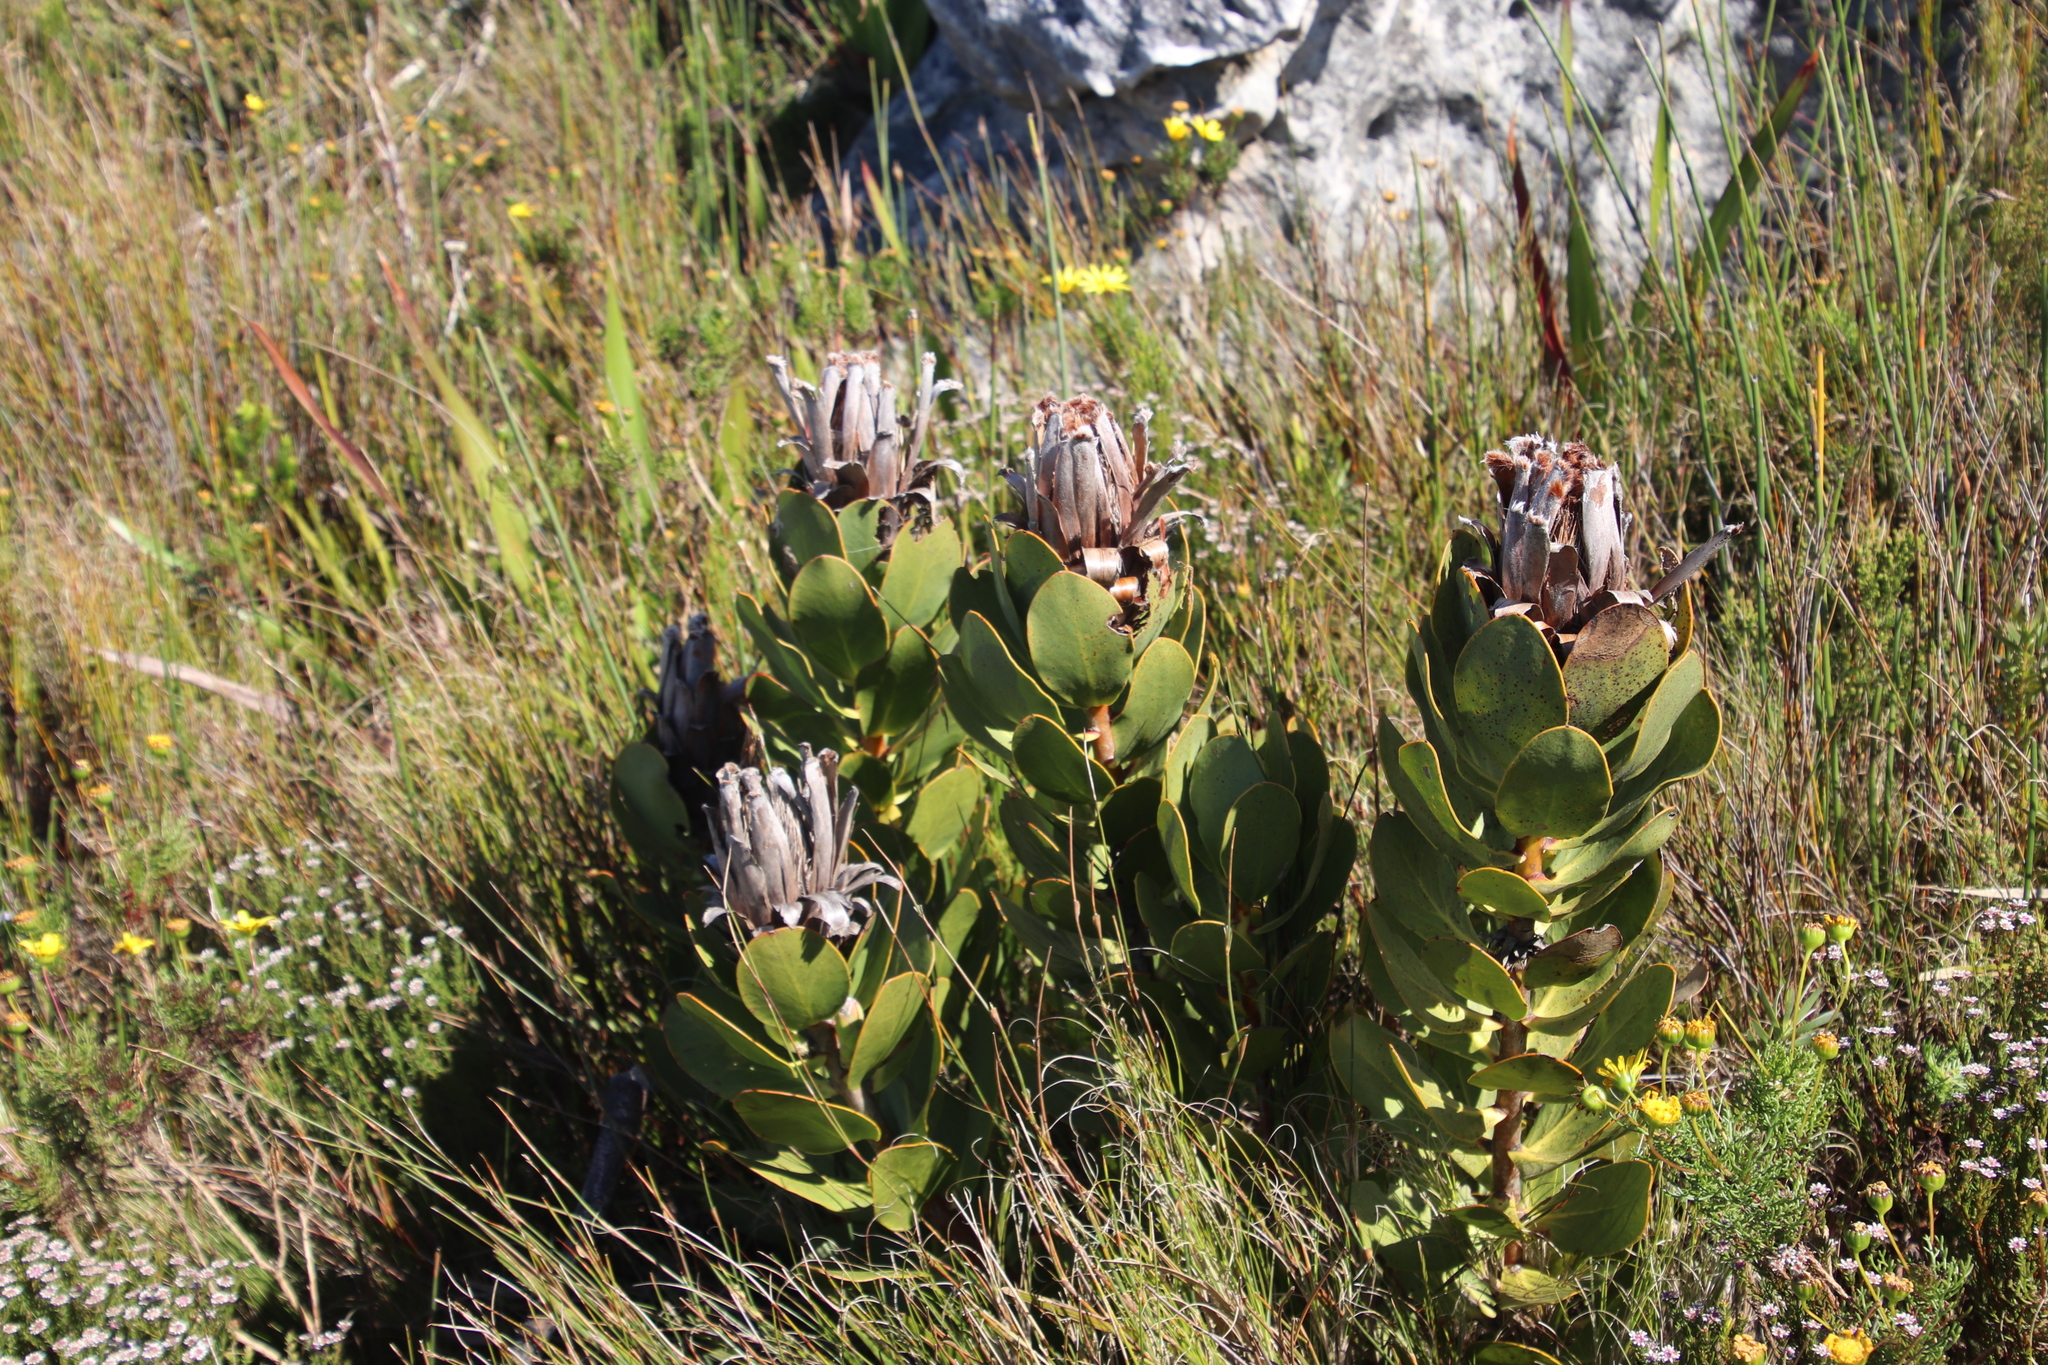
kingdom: Plantae
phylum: Tracheophyta
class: Magnoliopsida
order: Proteales
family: Proteaceae
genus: Protea
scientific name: Protea speciosa
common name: Brown-beard sugarbush
